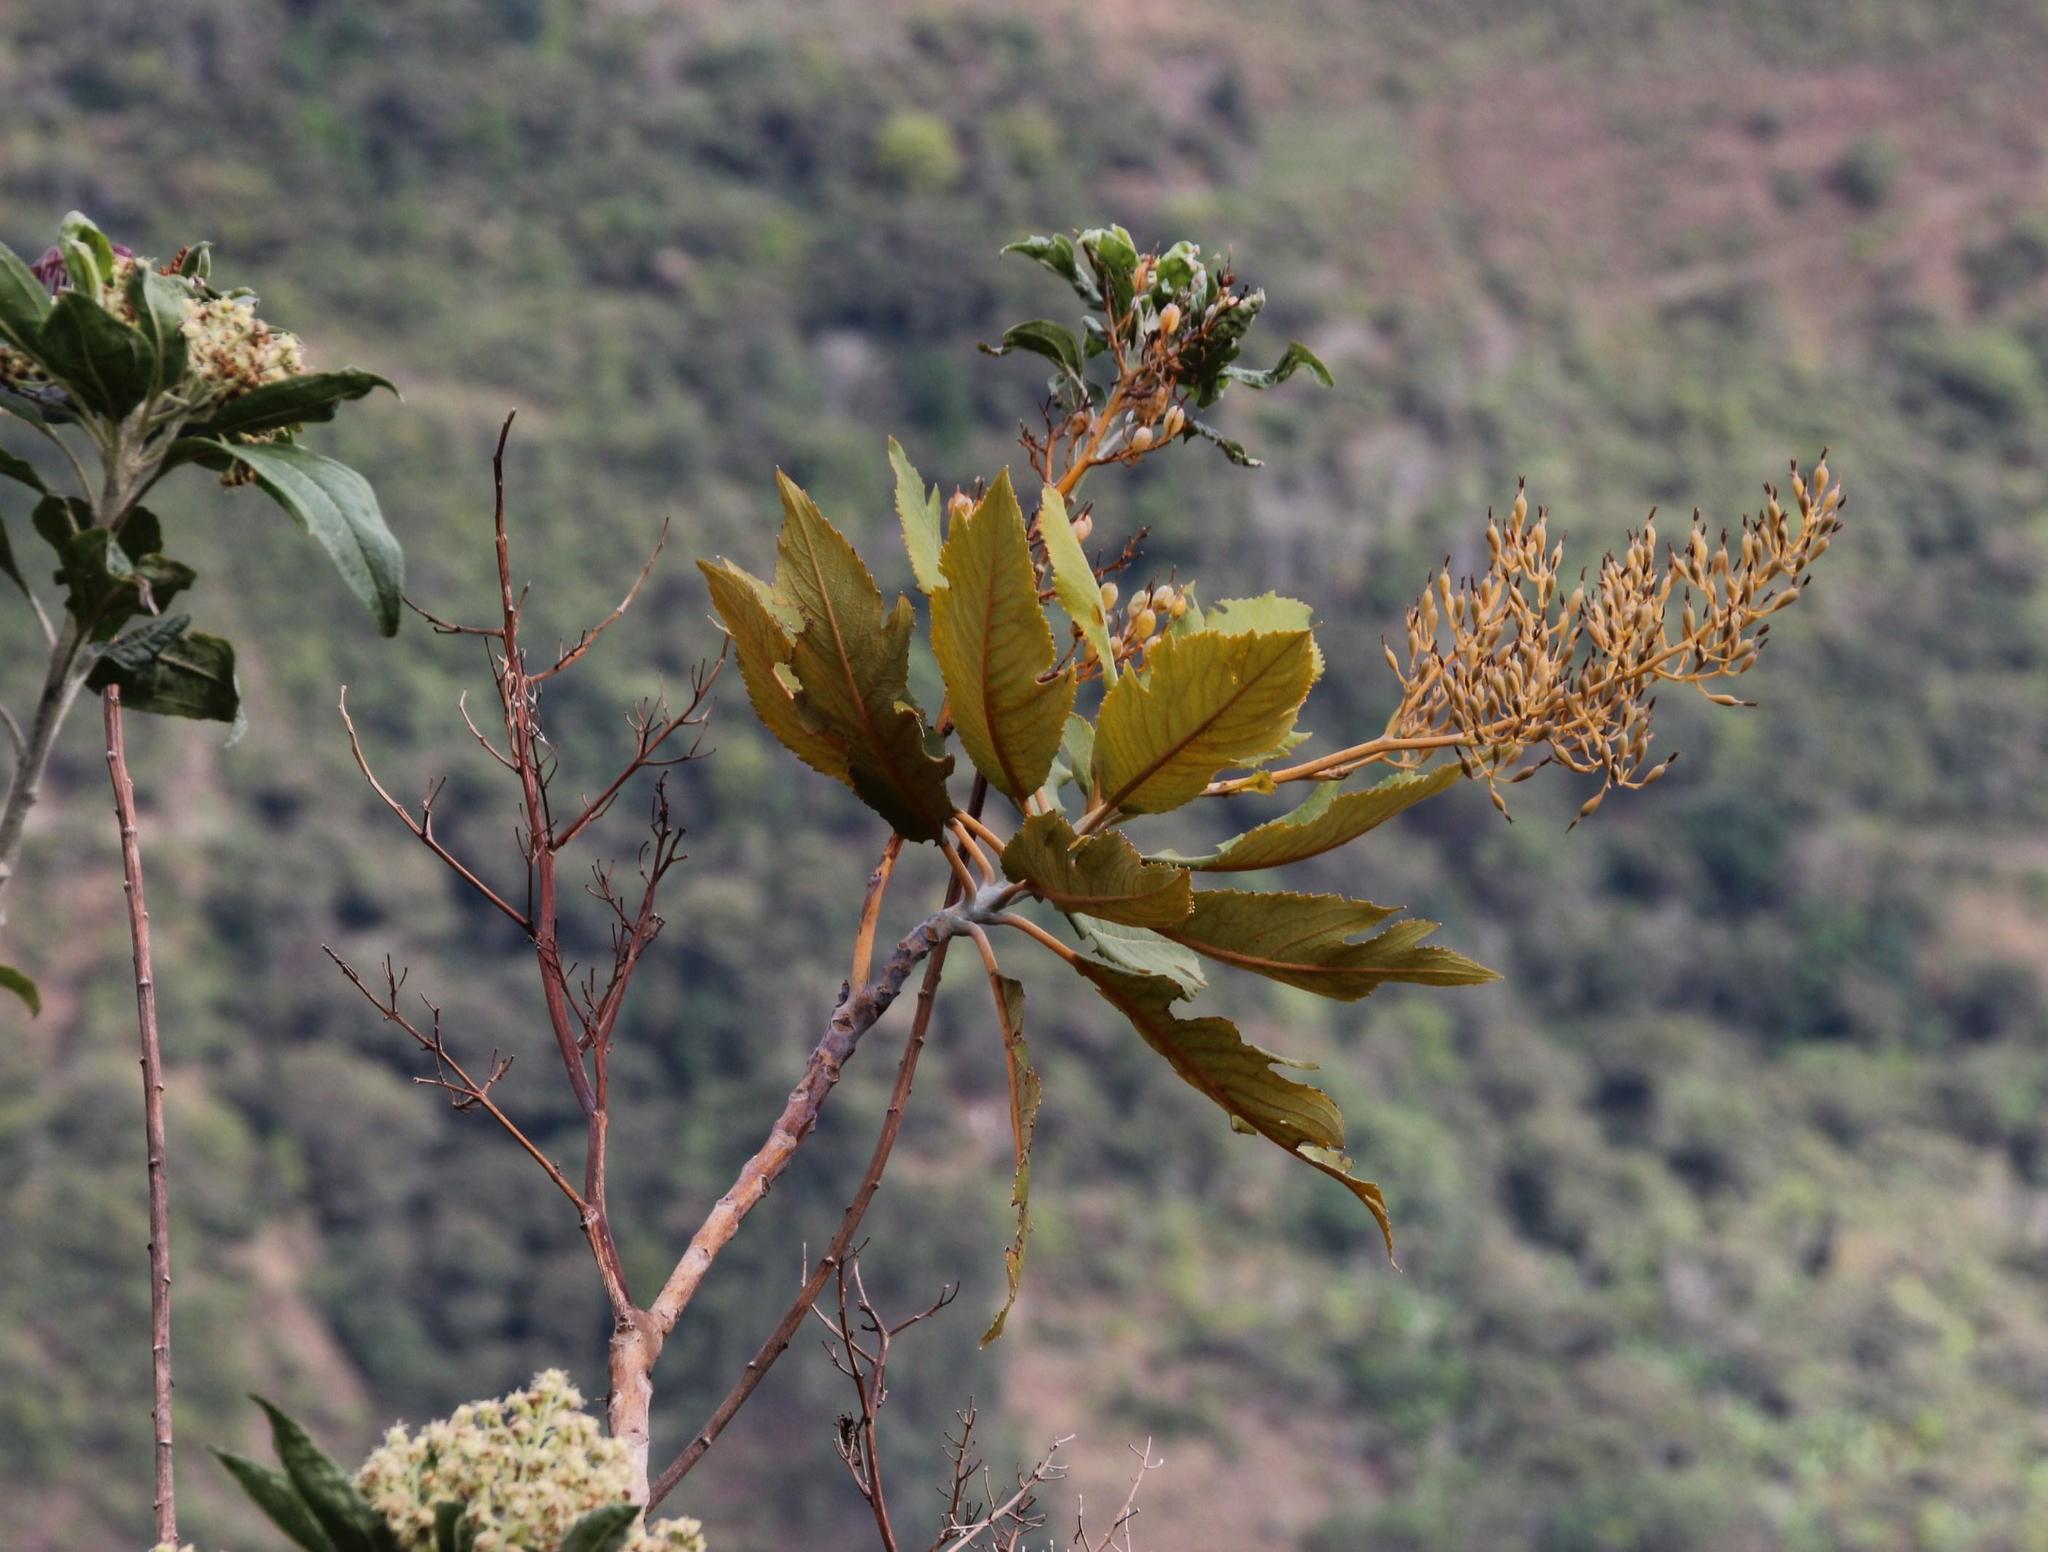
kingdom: Plantae
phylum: Tracheophyta
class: Magnoliopsida
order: Ranunculales
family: Papaveraceae
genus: Bocconia
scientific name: Bocconia frutescens
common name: Tree poppy
